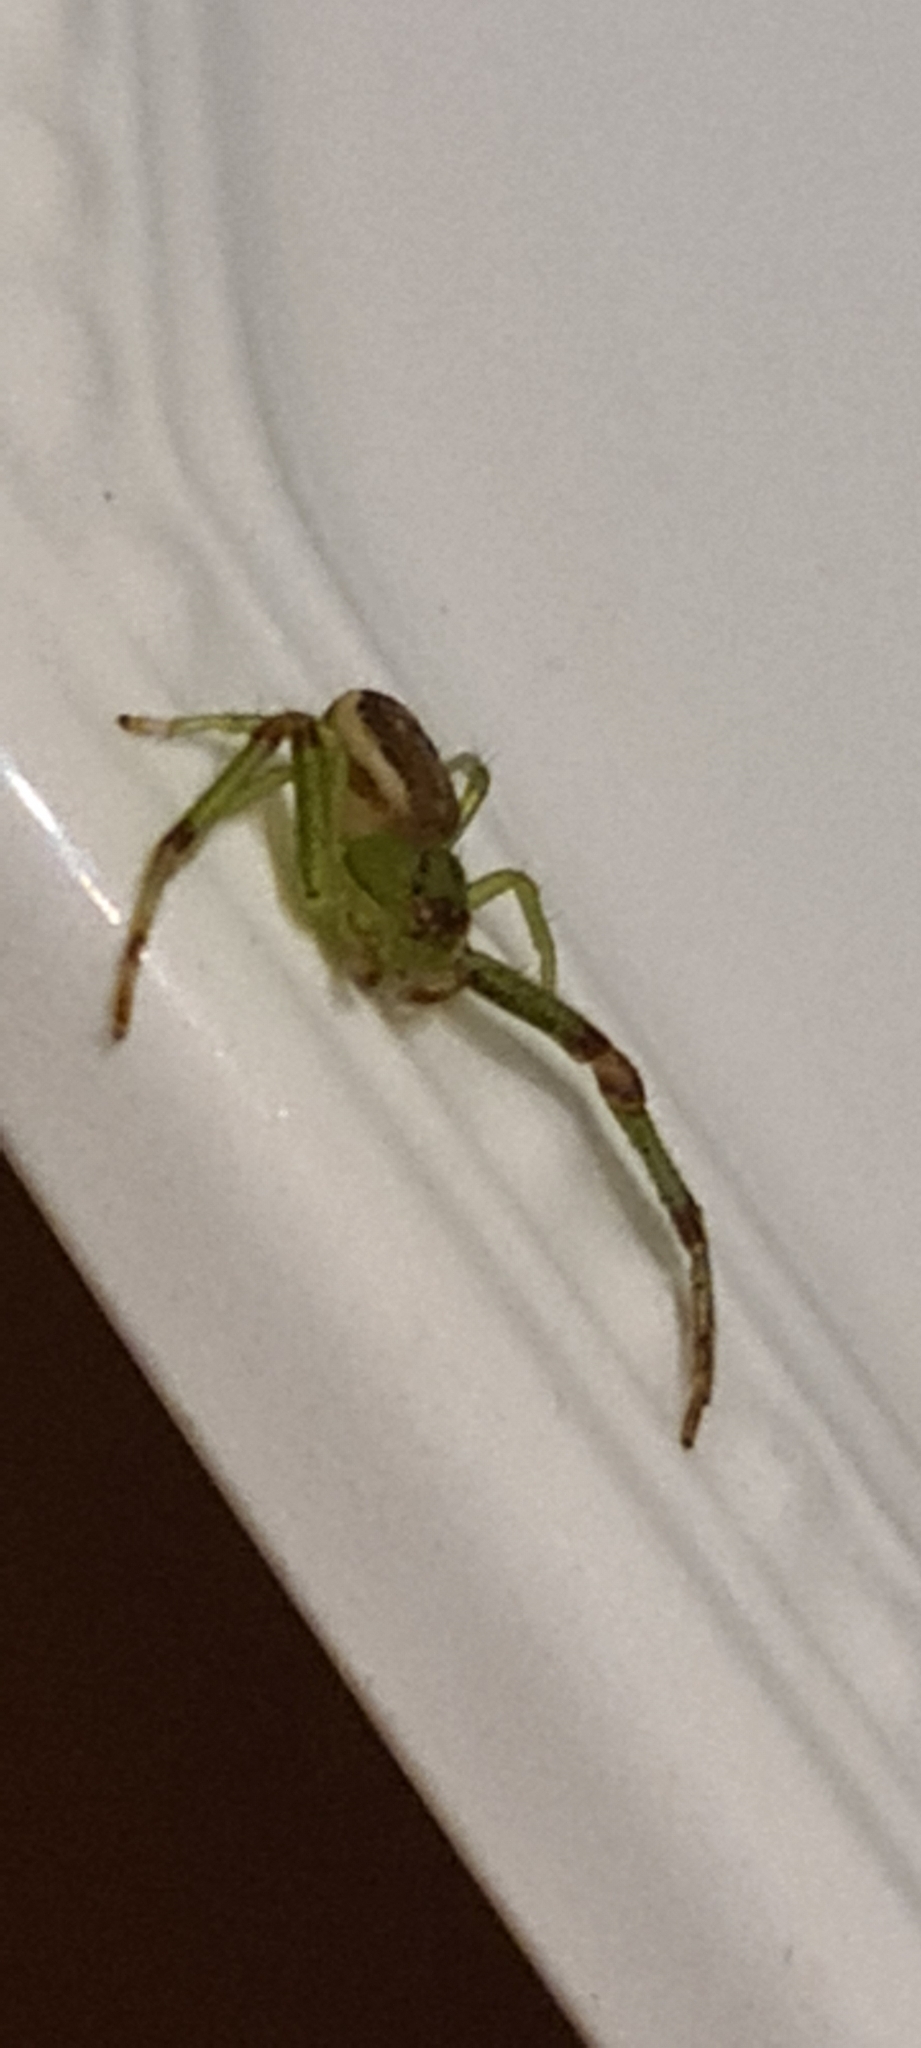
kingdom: Animalia
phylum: Arthropoda
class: Arachnida
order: Araneae
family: Thomisidae
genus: Diaea
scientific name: Diaea dorsata
